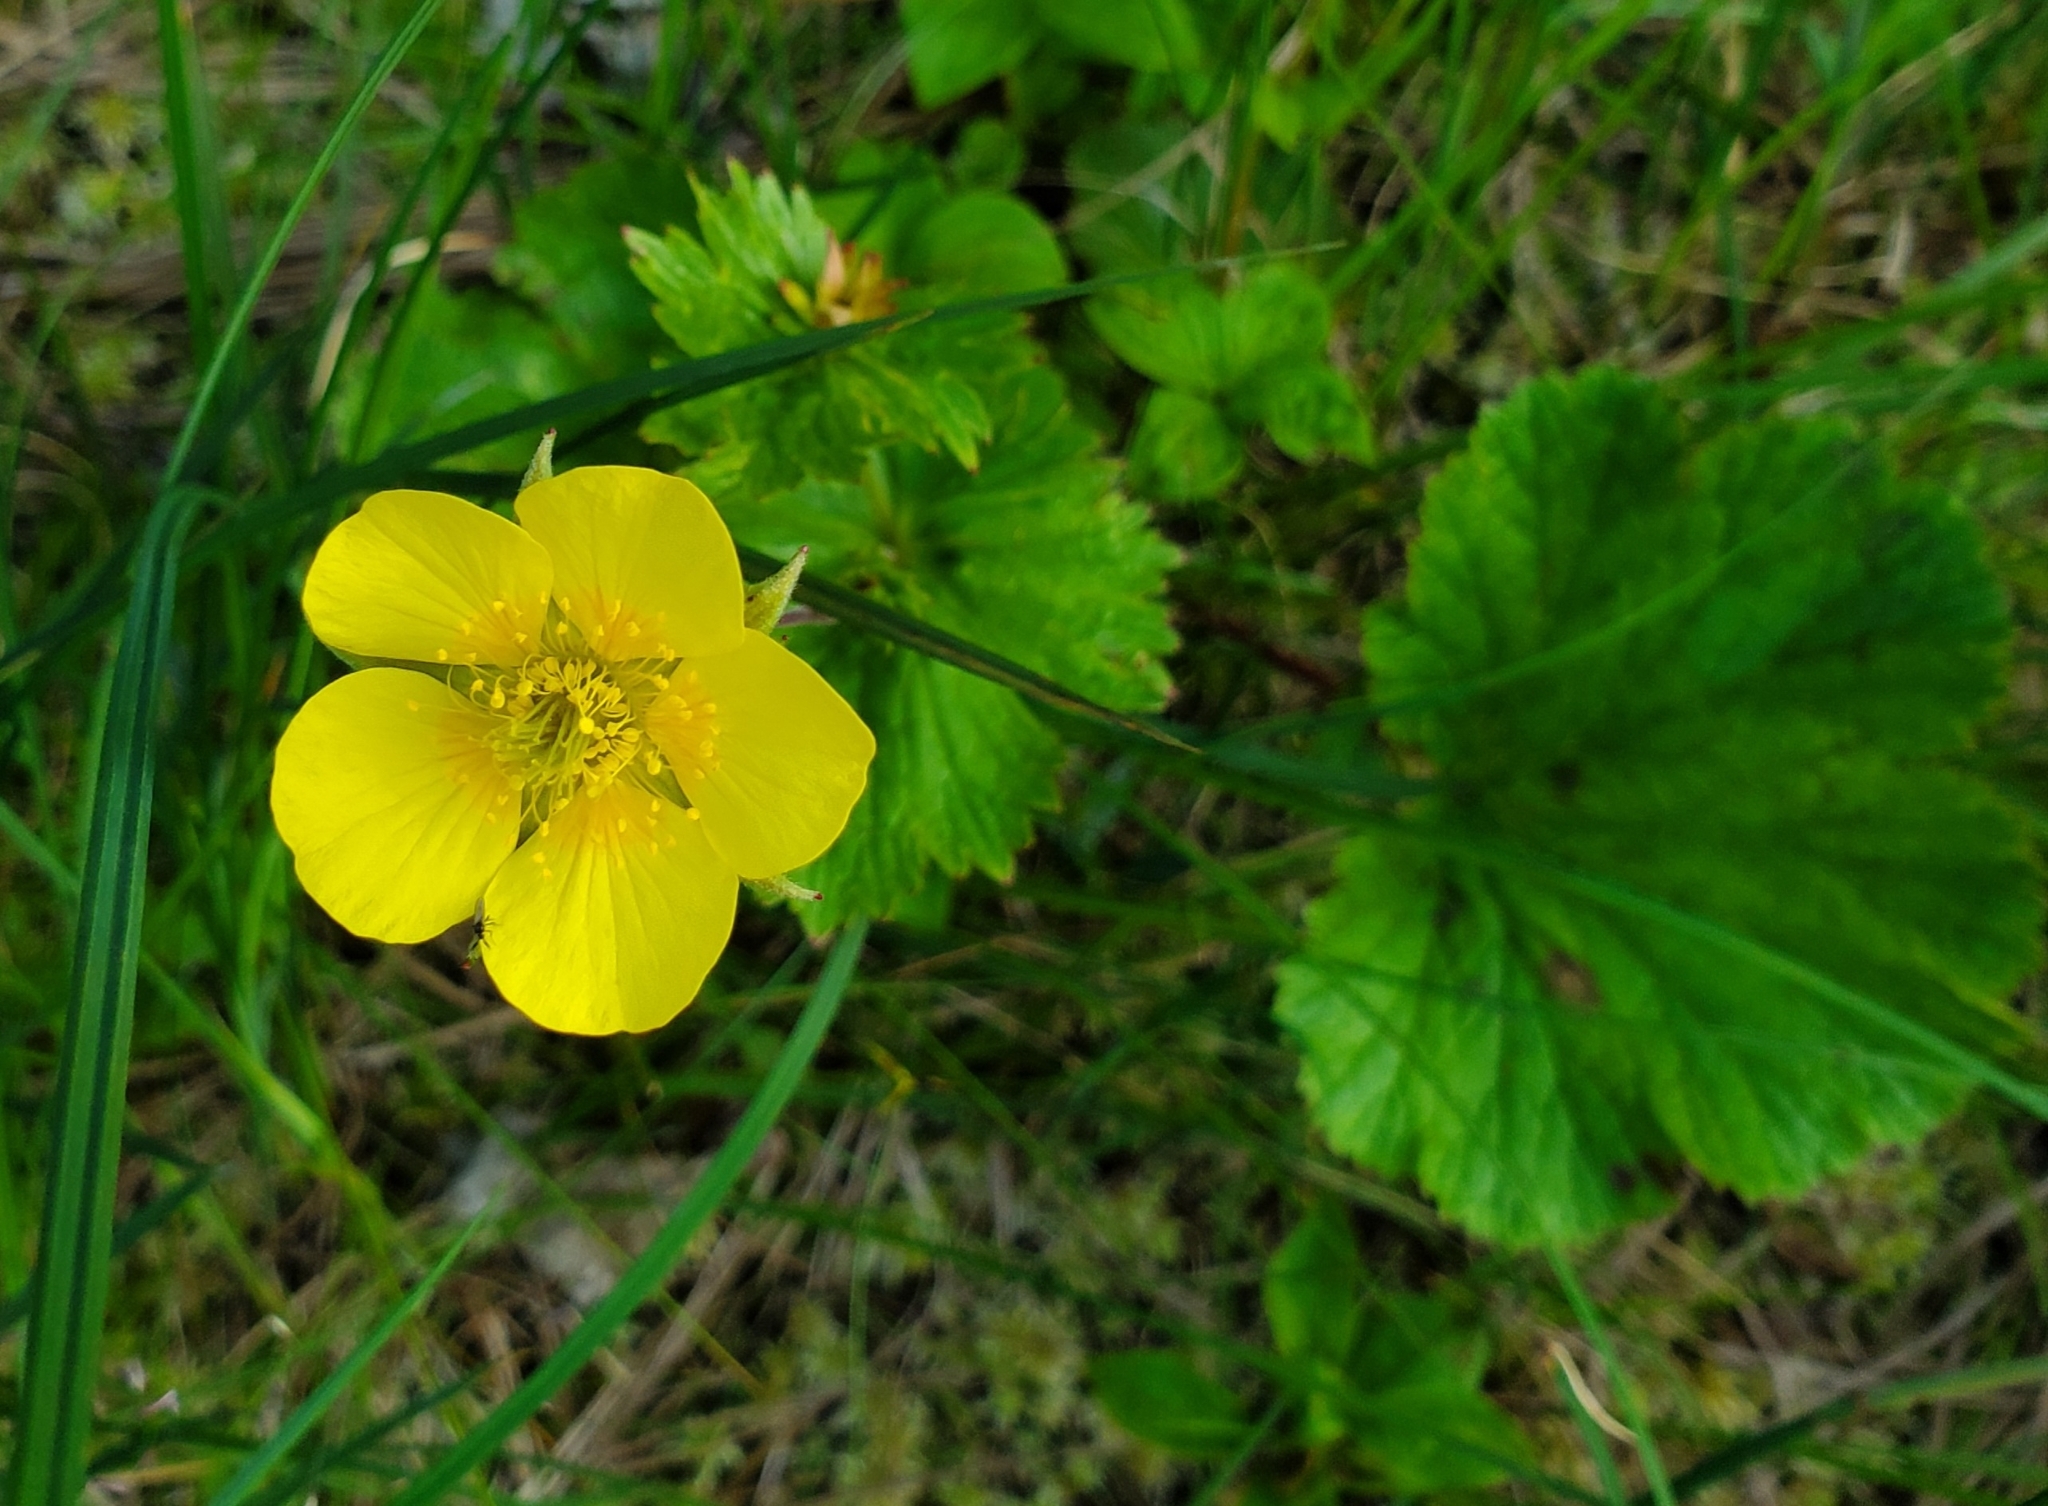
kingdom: Plantae
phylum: Tracheophyta
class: Magnoliopsida
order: Rosales
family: Rosaceae
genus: Geum
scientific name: Geum calthifolium
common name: Caltha-leaved avens
